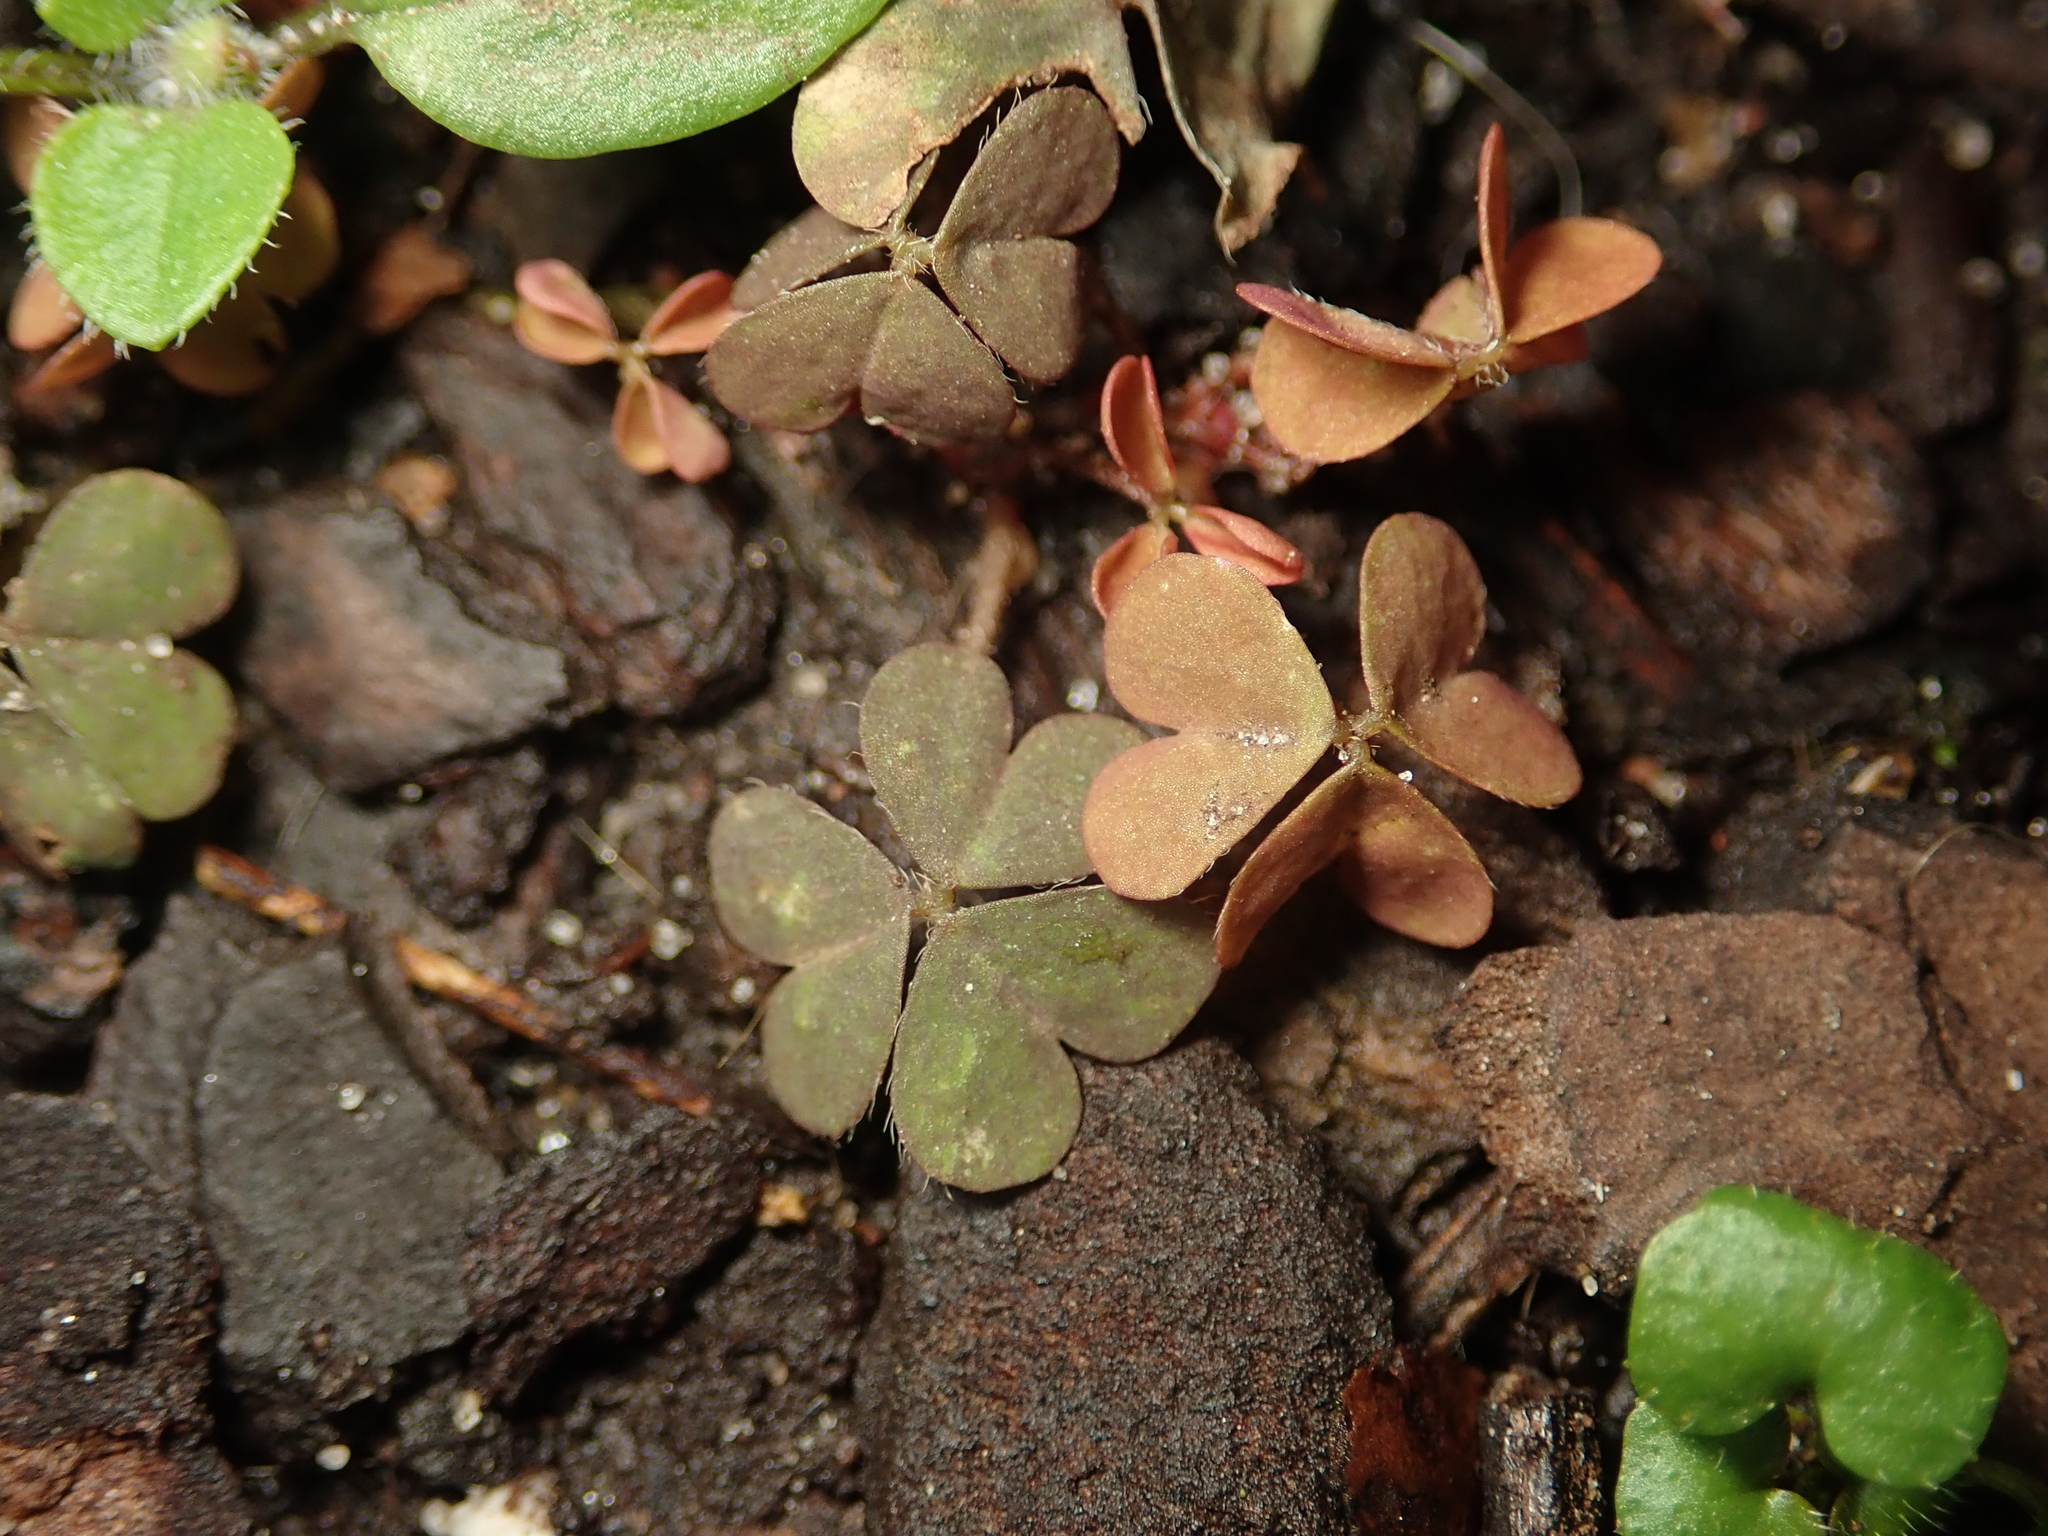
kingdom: Plantae
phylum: Tracheophyta
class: Magnoliopsida
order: Oxalidales
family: Oxalidaceae
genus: Oxalis
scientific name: Oxalis corniculata
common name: Procumbent yellow-sorrel
